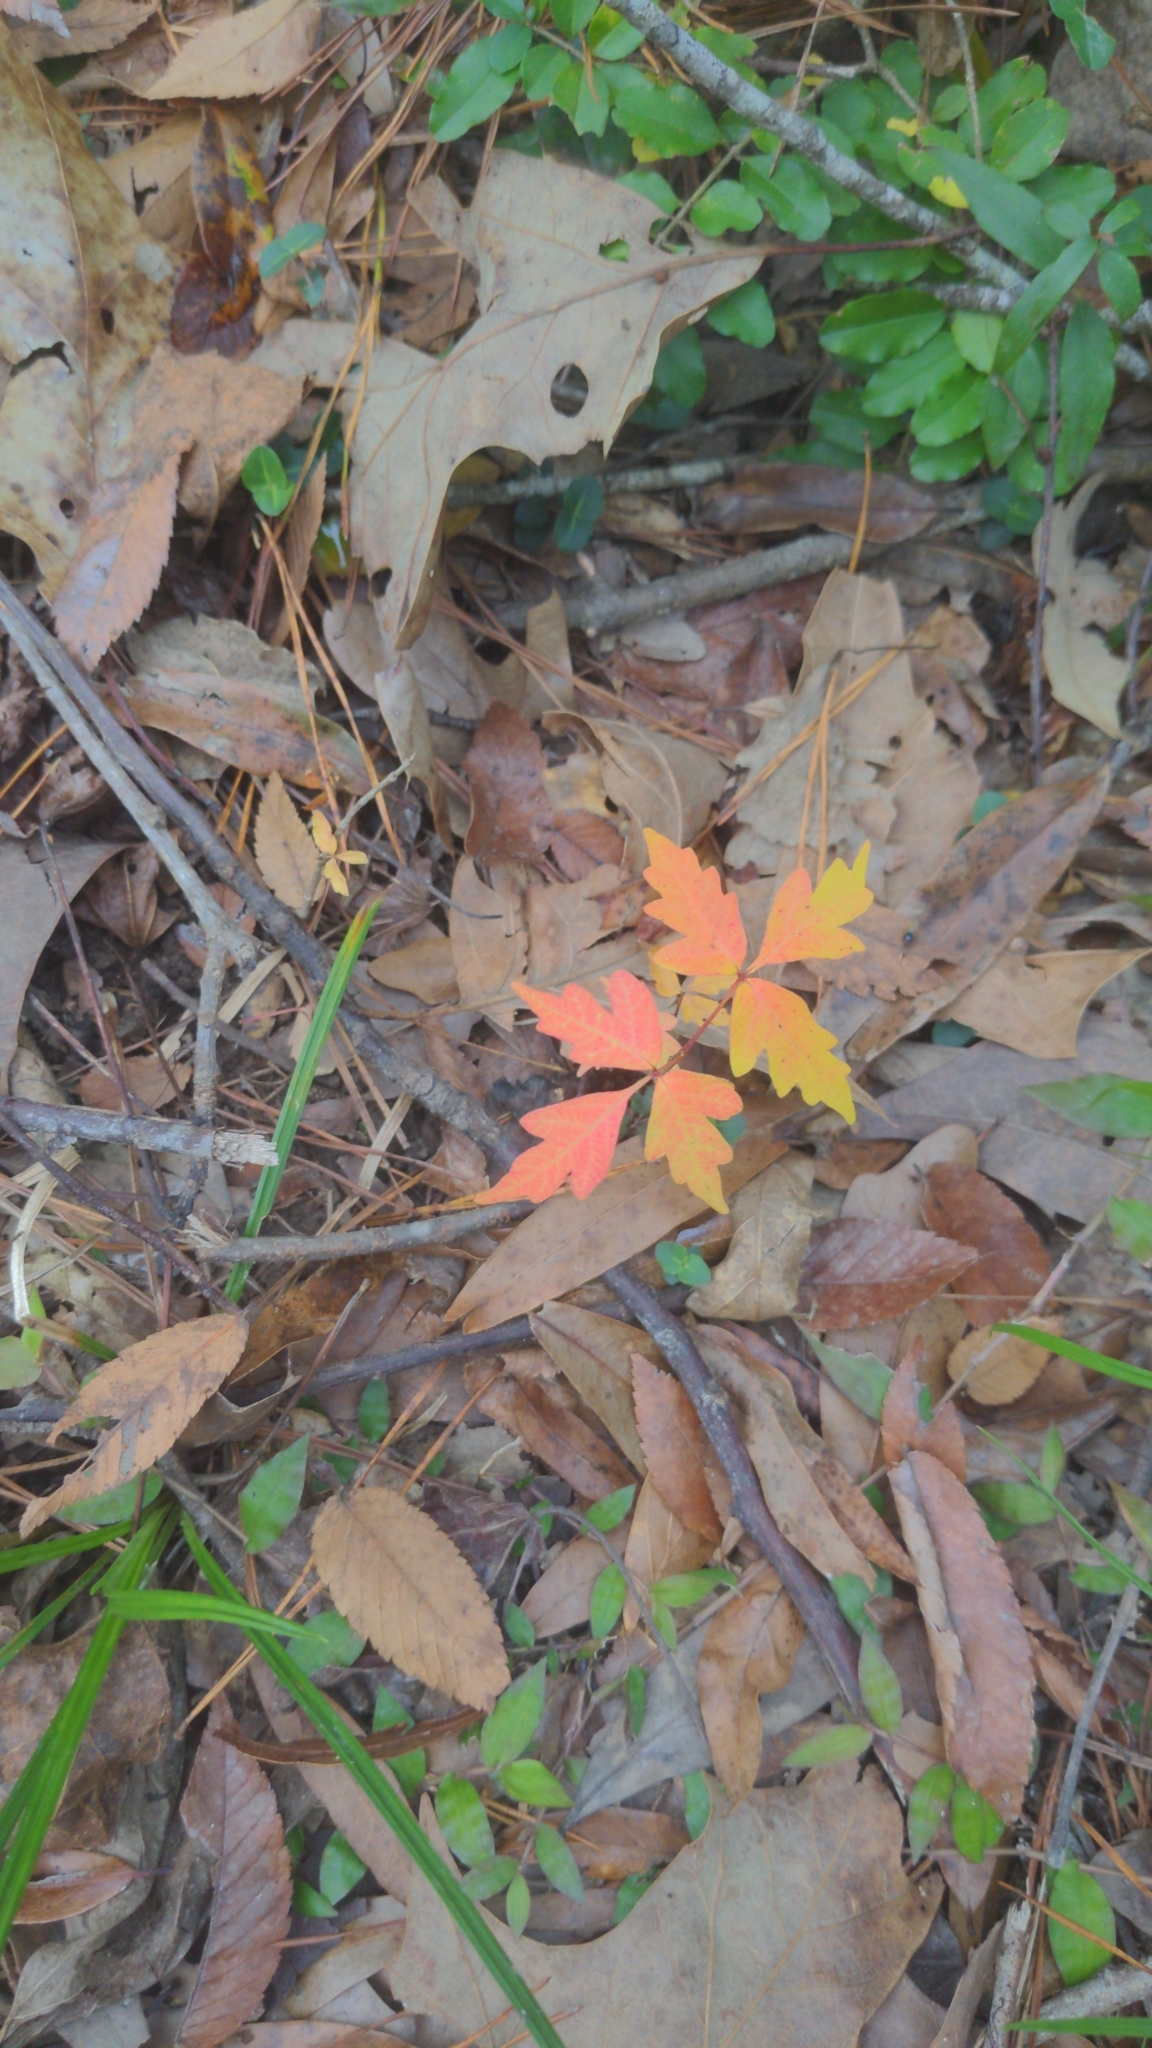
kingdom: Plantae
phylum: Tracheophyta
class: Magnoliopsida
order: Sapindales
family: Anacardiaceae
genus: Toxicodendron
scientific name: Toxicodendron radicans
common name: Poison ivy
